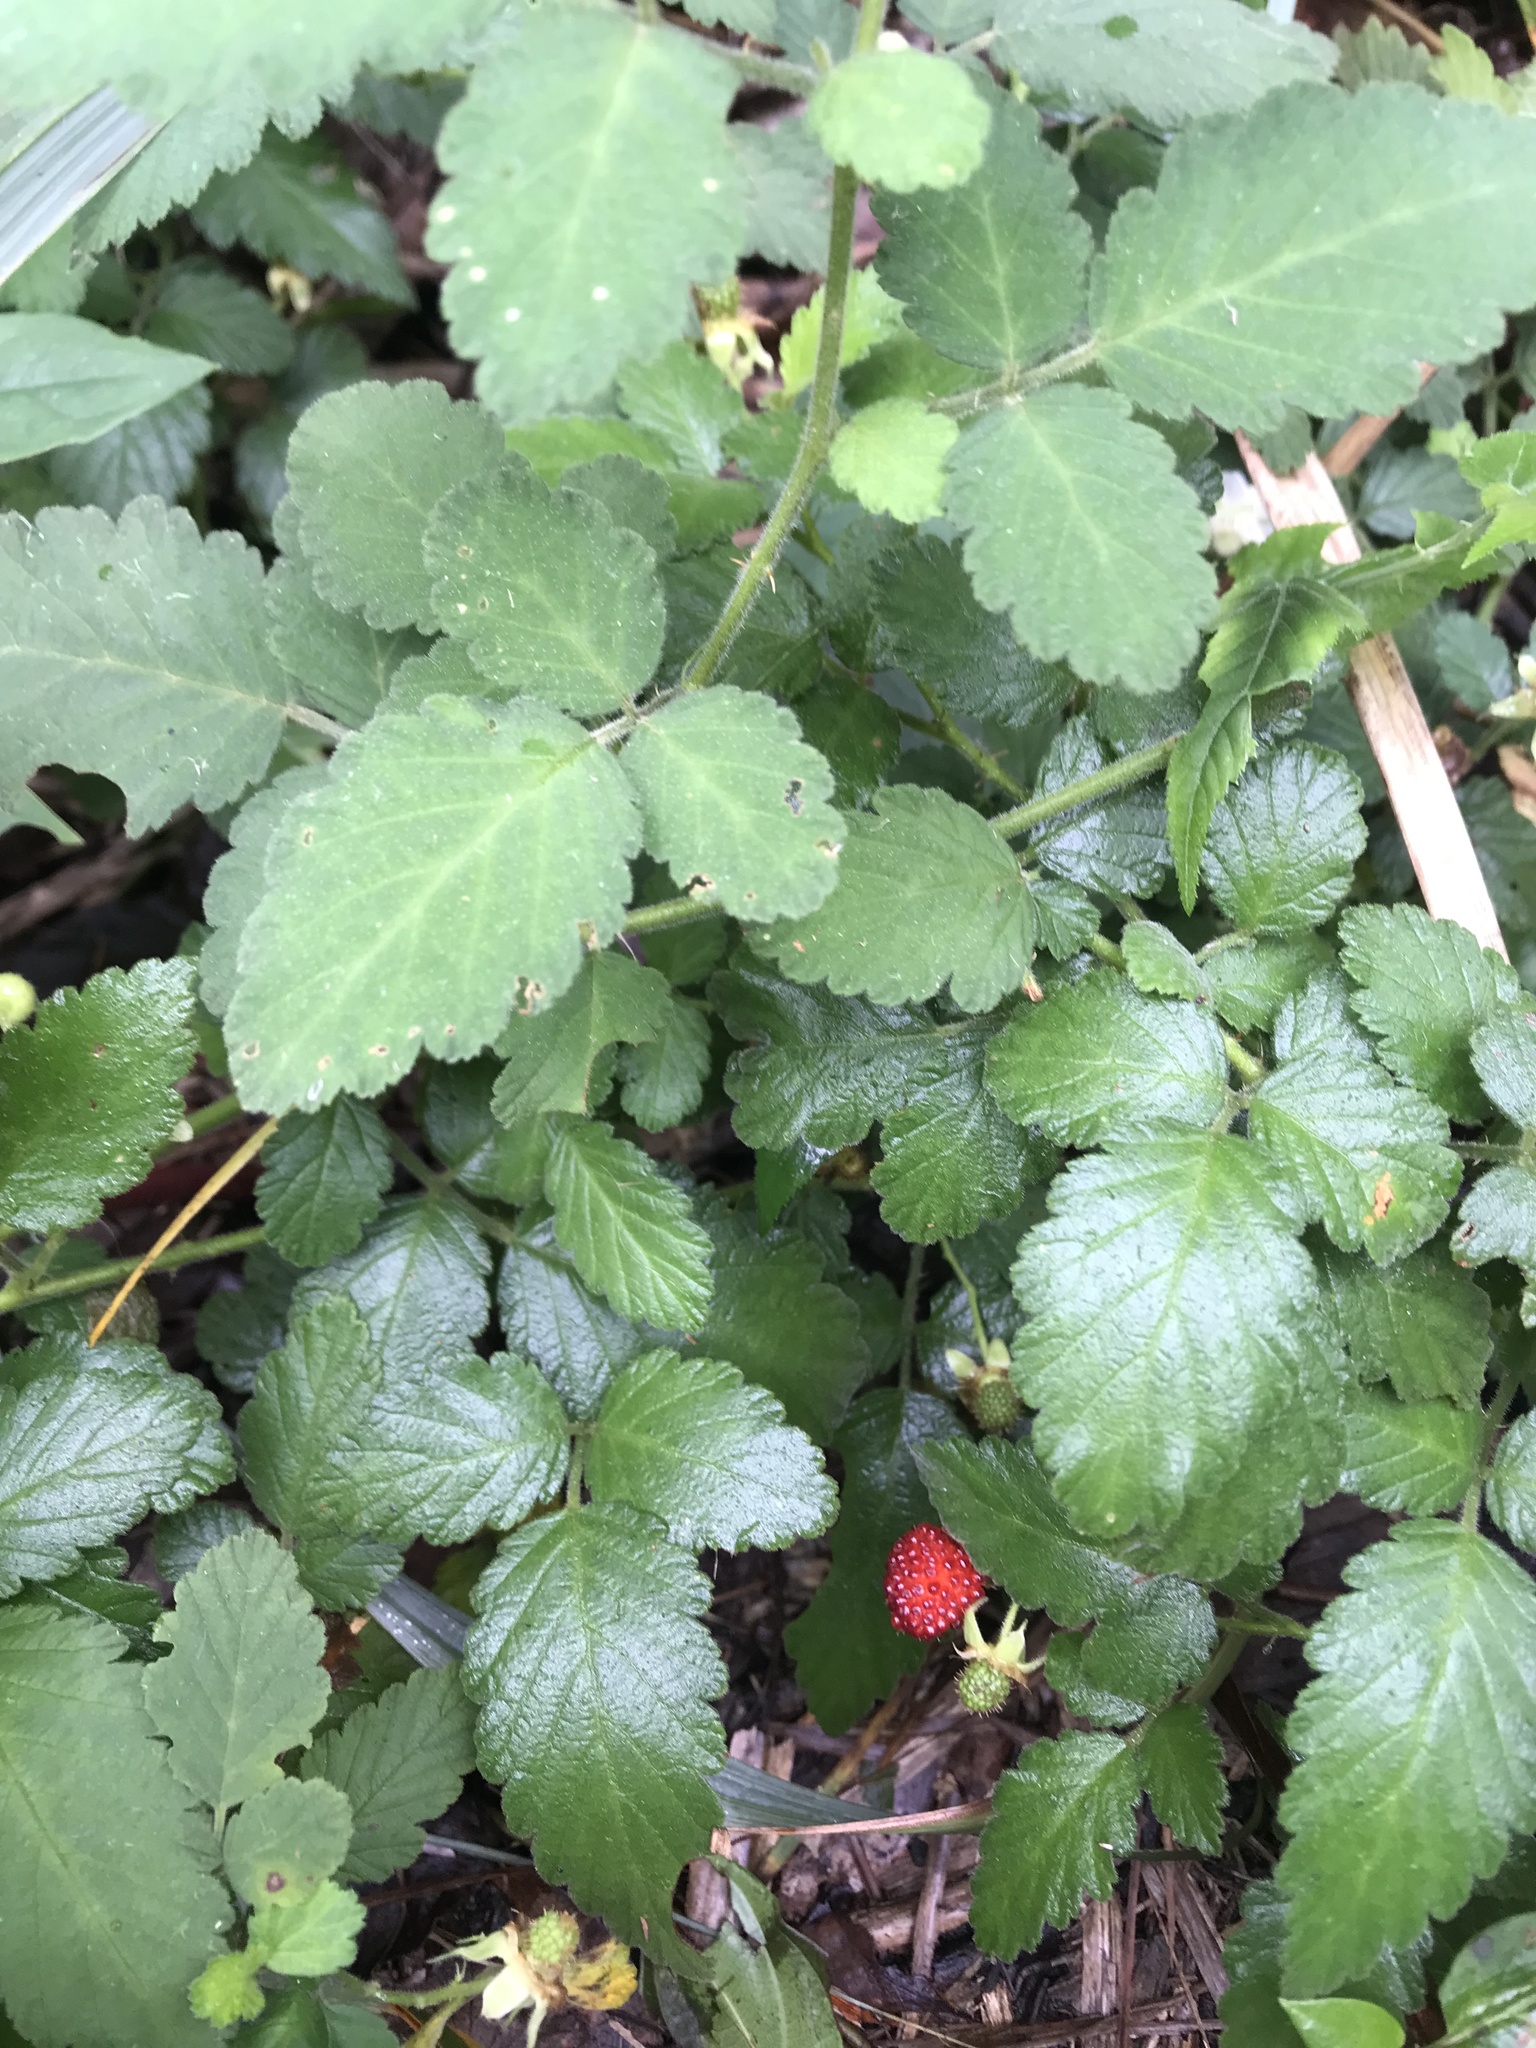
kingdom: Plantae
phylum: Tracheophyta
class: Magnoliopsida
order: Rosales
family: Rosaceae
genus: Rubus
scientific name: Rubus rosifolius
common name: Roseleaf raspberry
